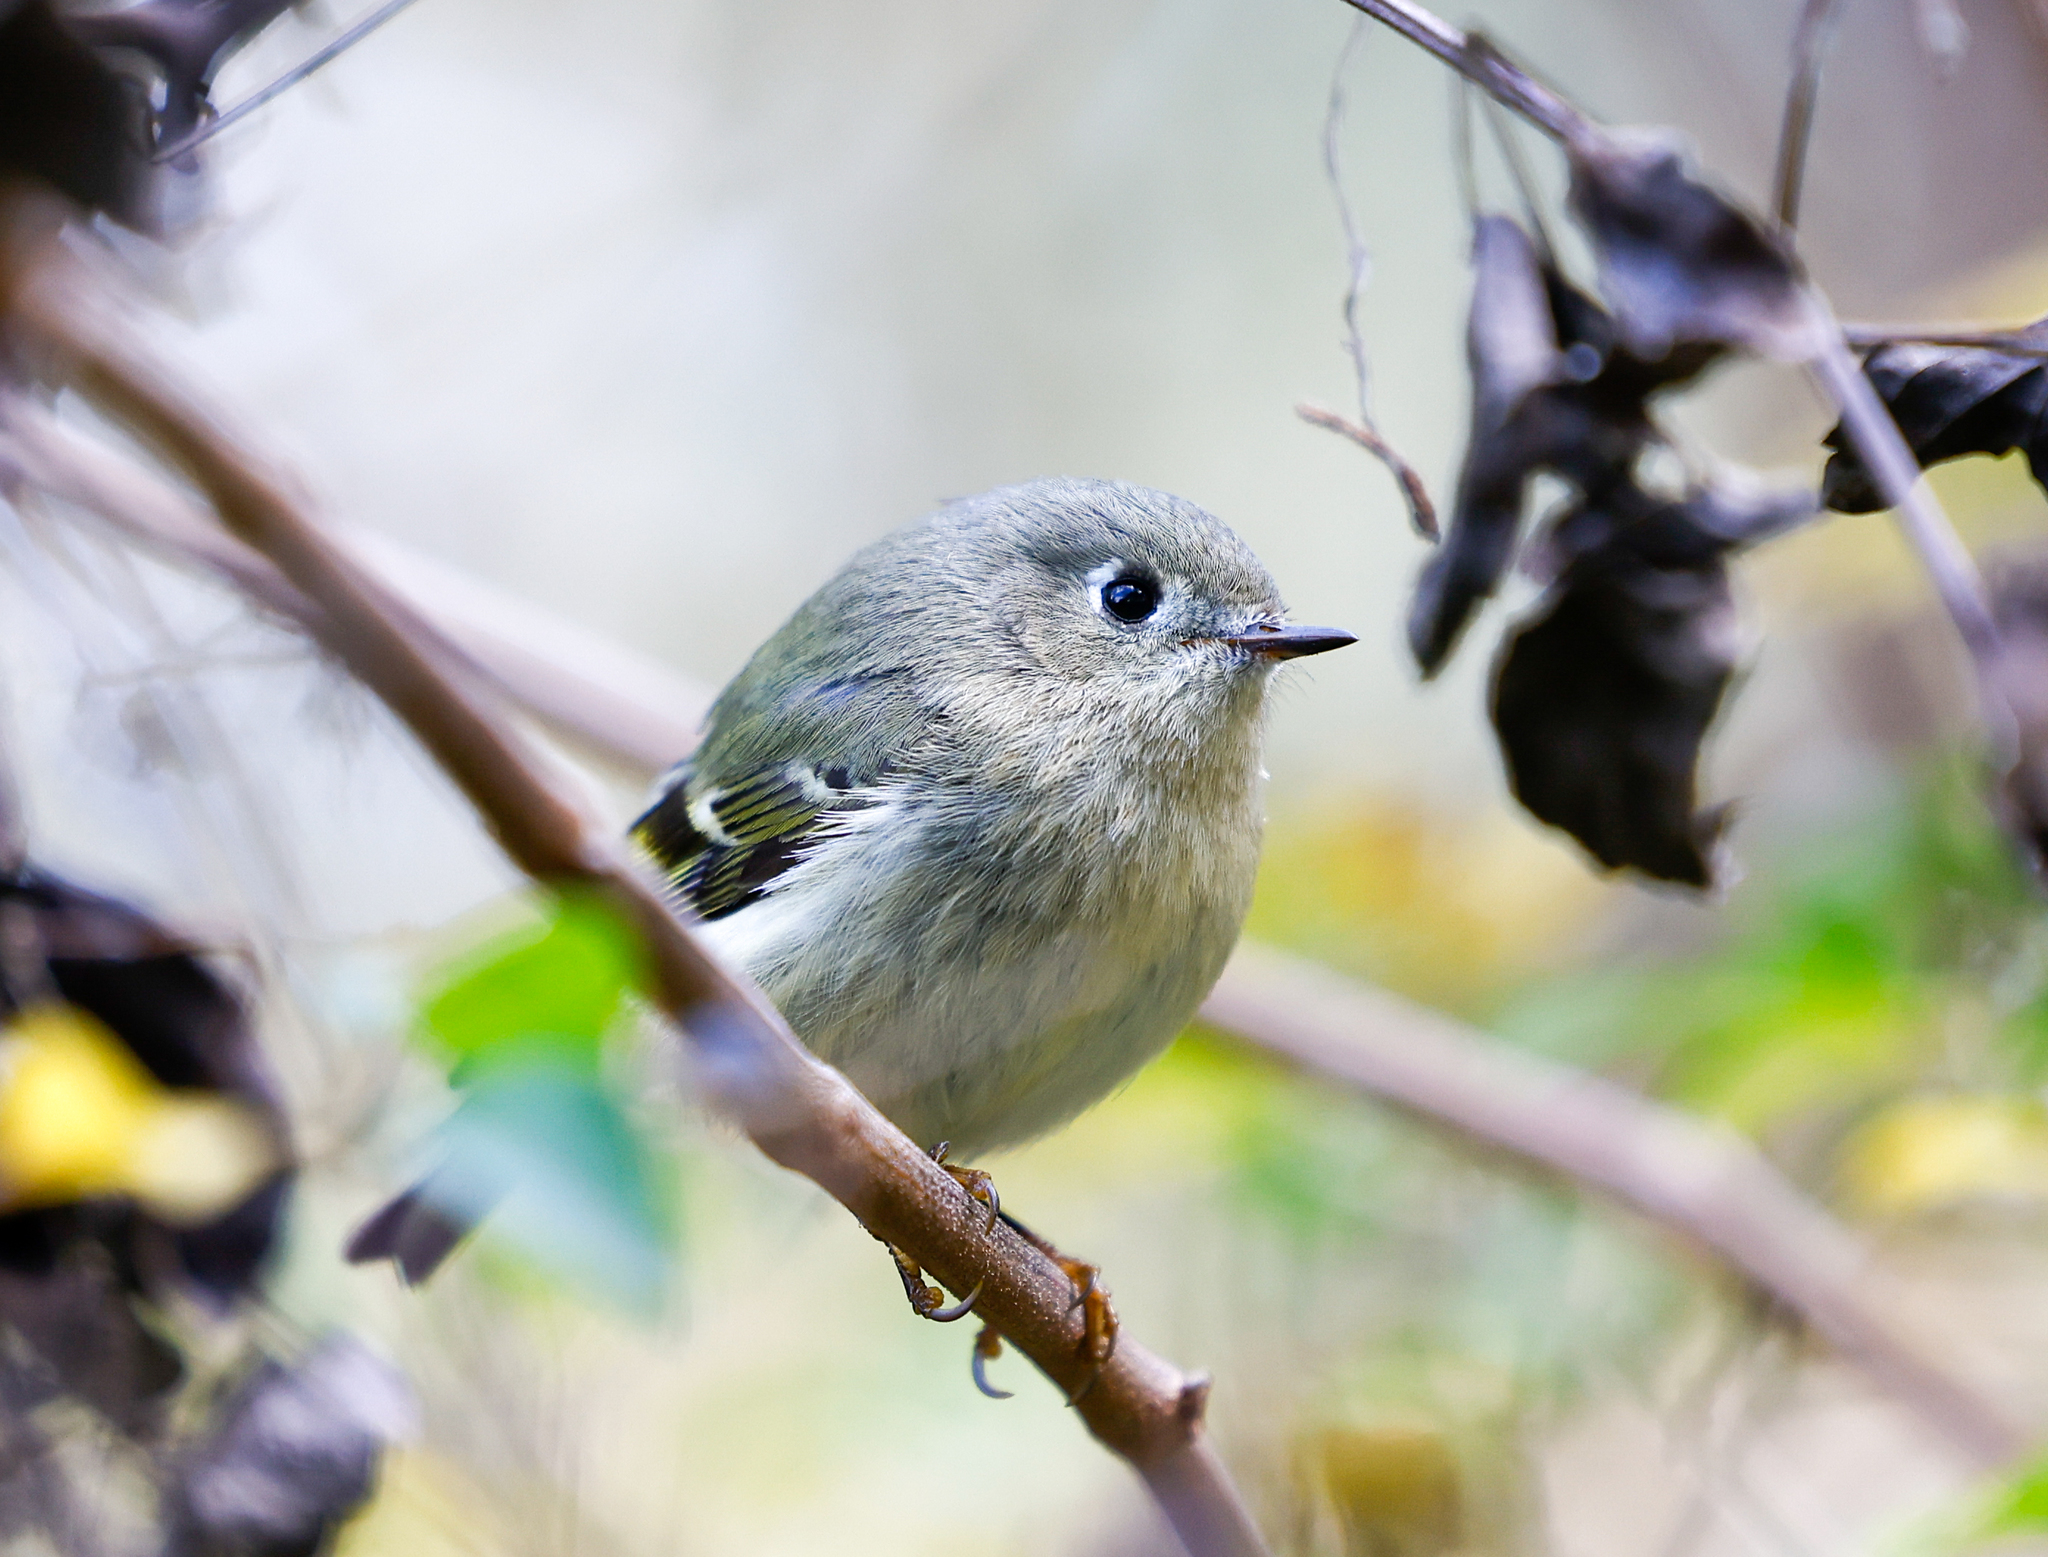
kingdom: Animalia
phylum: Chordata
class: Aves
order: Passeriformes
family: Regulidae
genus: Regulus
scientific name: Regulus calendula
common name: Ruby-crowned kinglet
